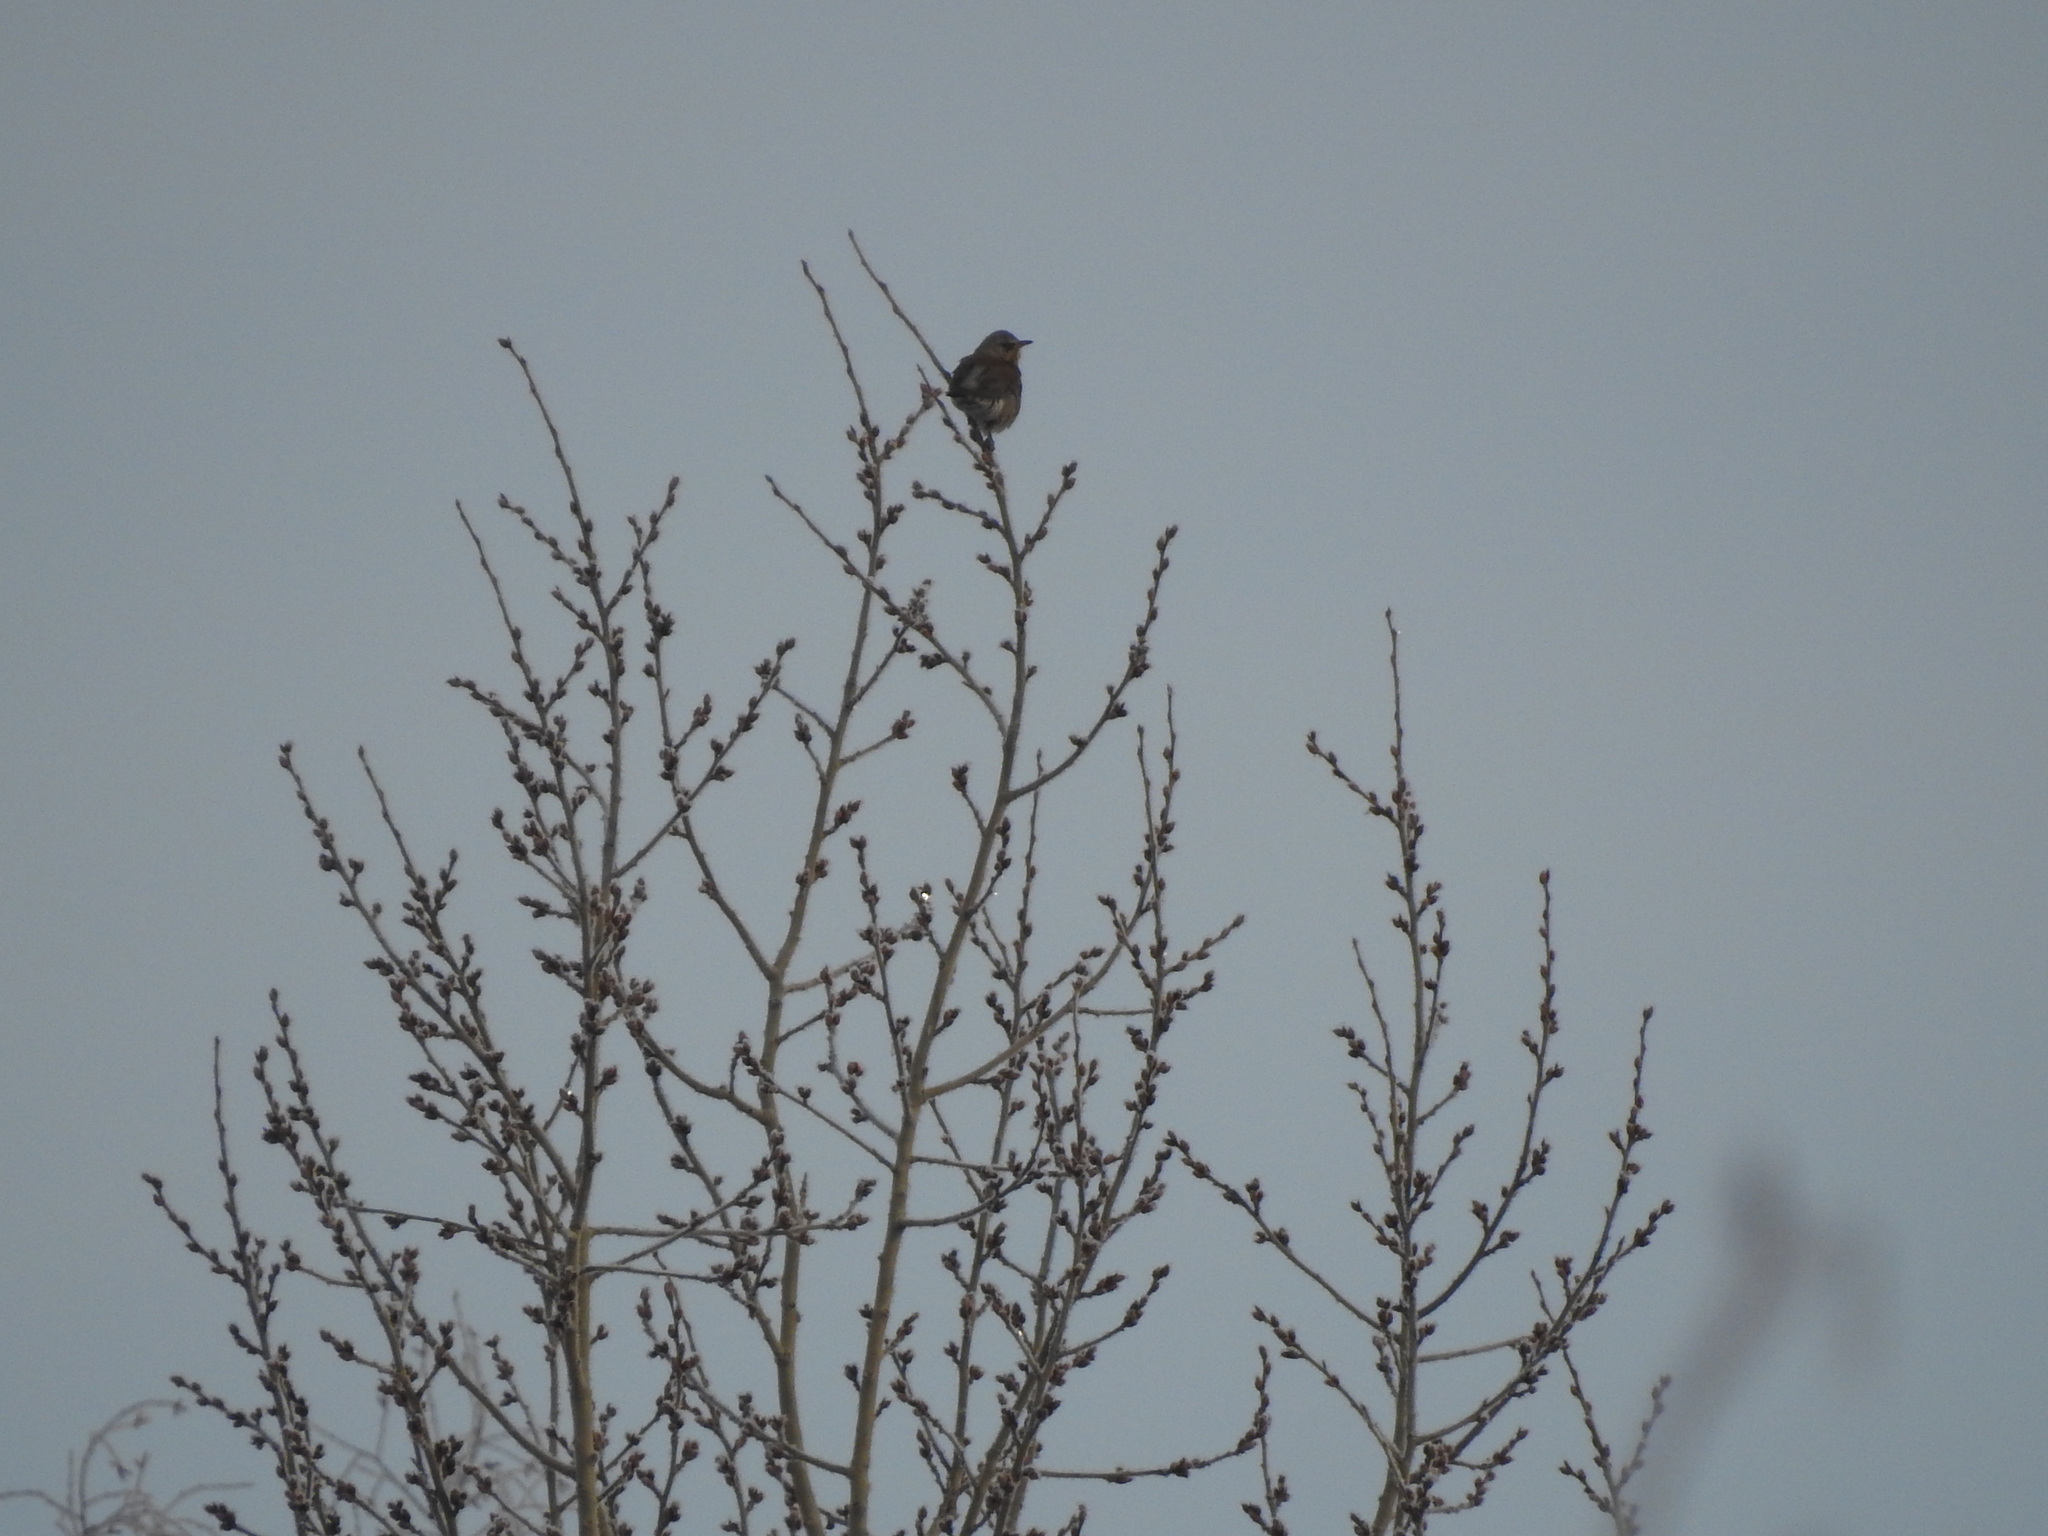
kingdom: Animalia
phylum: Chordata
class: Aves
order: Passeriformes
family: Turdidae
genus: Turdus
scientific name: Turdus pilaris
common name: Fieldfare
